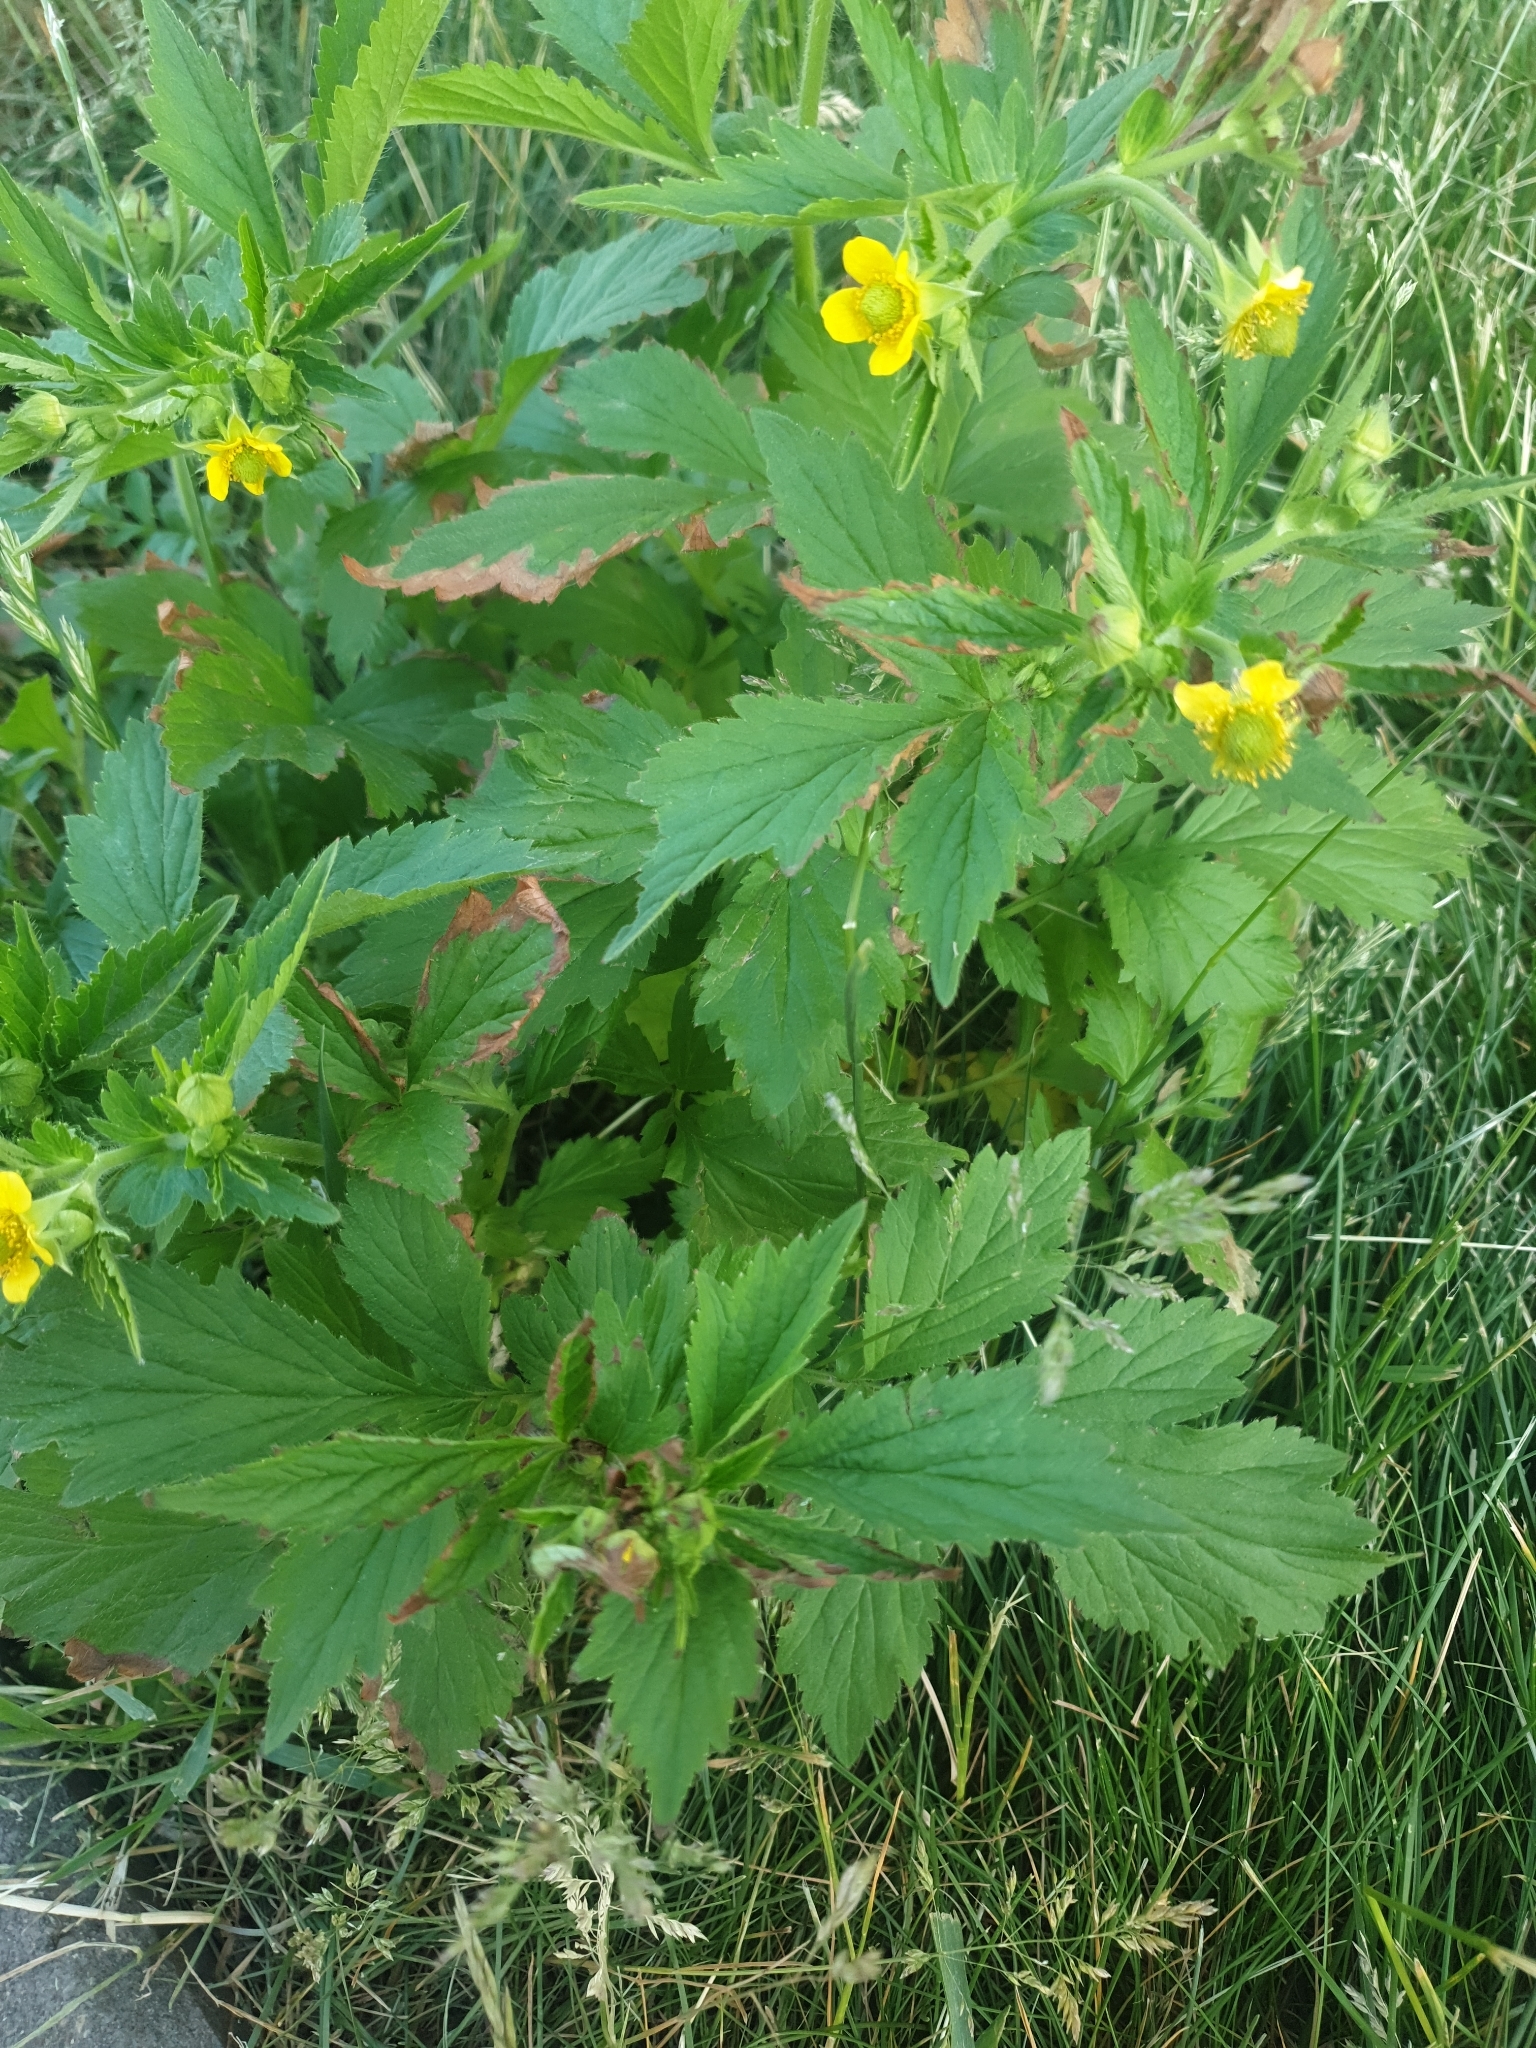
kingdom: Plantae
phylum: Tracheophyta
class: Magnoliopsida
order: Rosales
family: Rosaceae
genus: Geum
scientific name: Geum aleppicum
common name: Yellow avens
